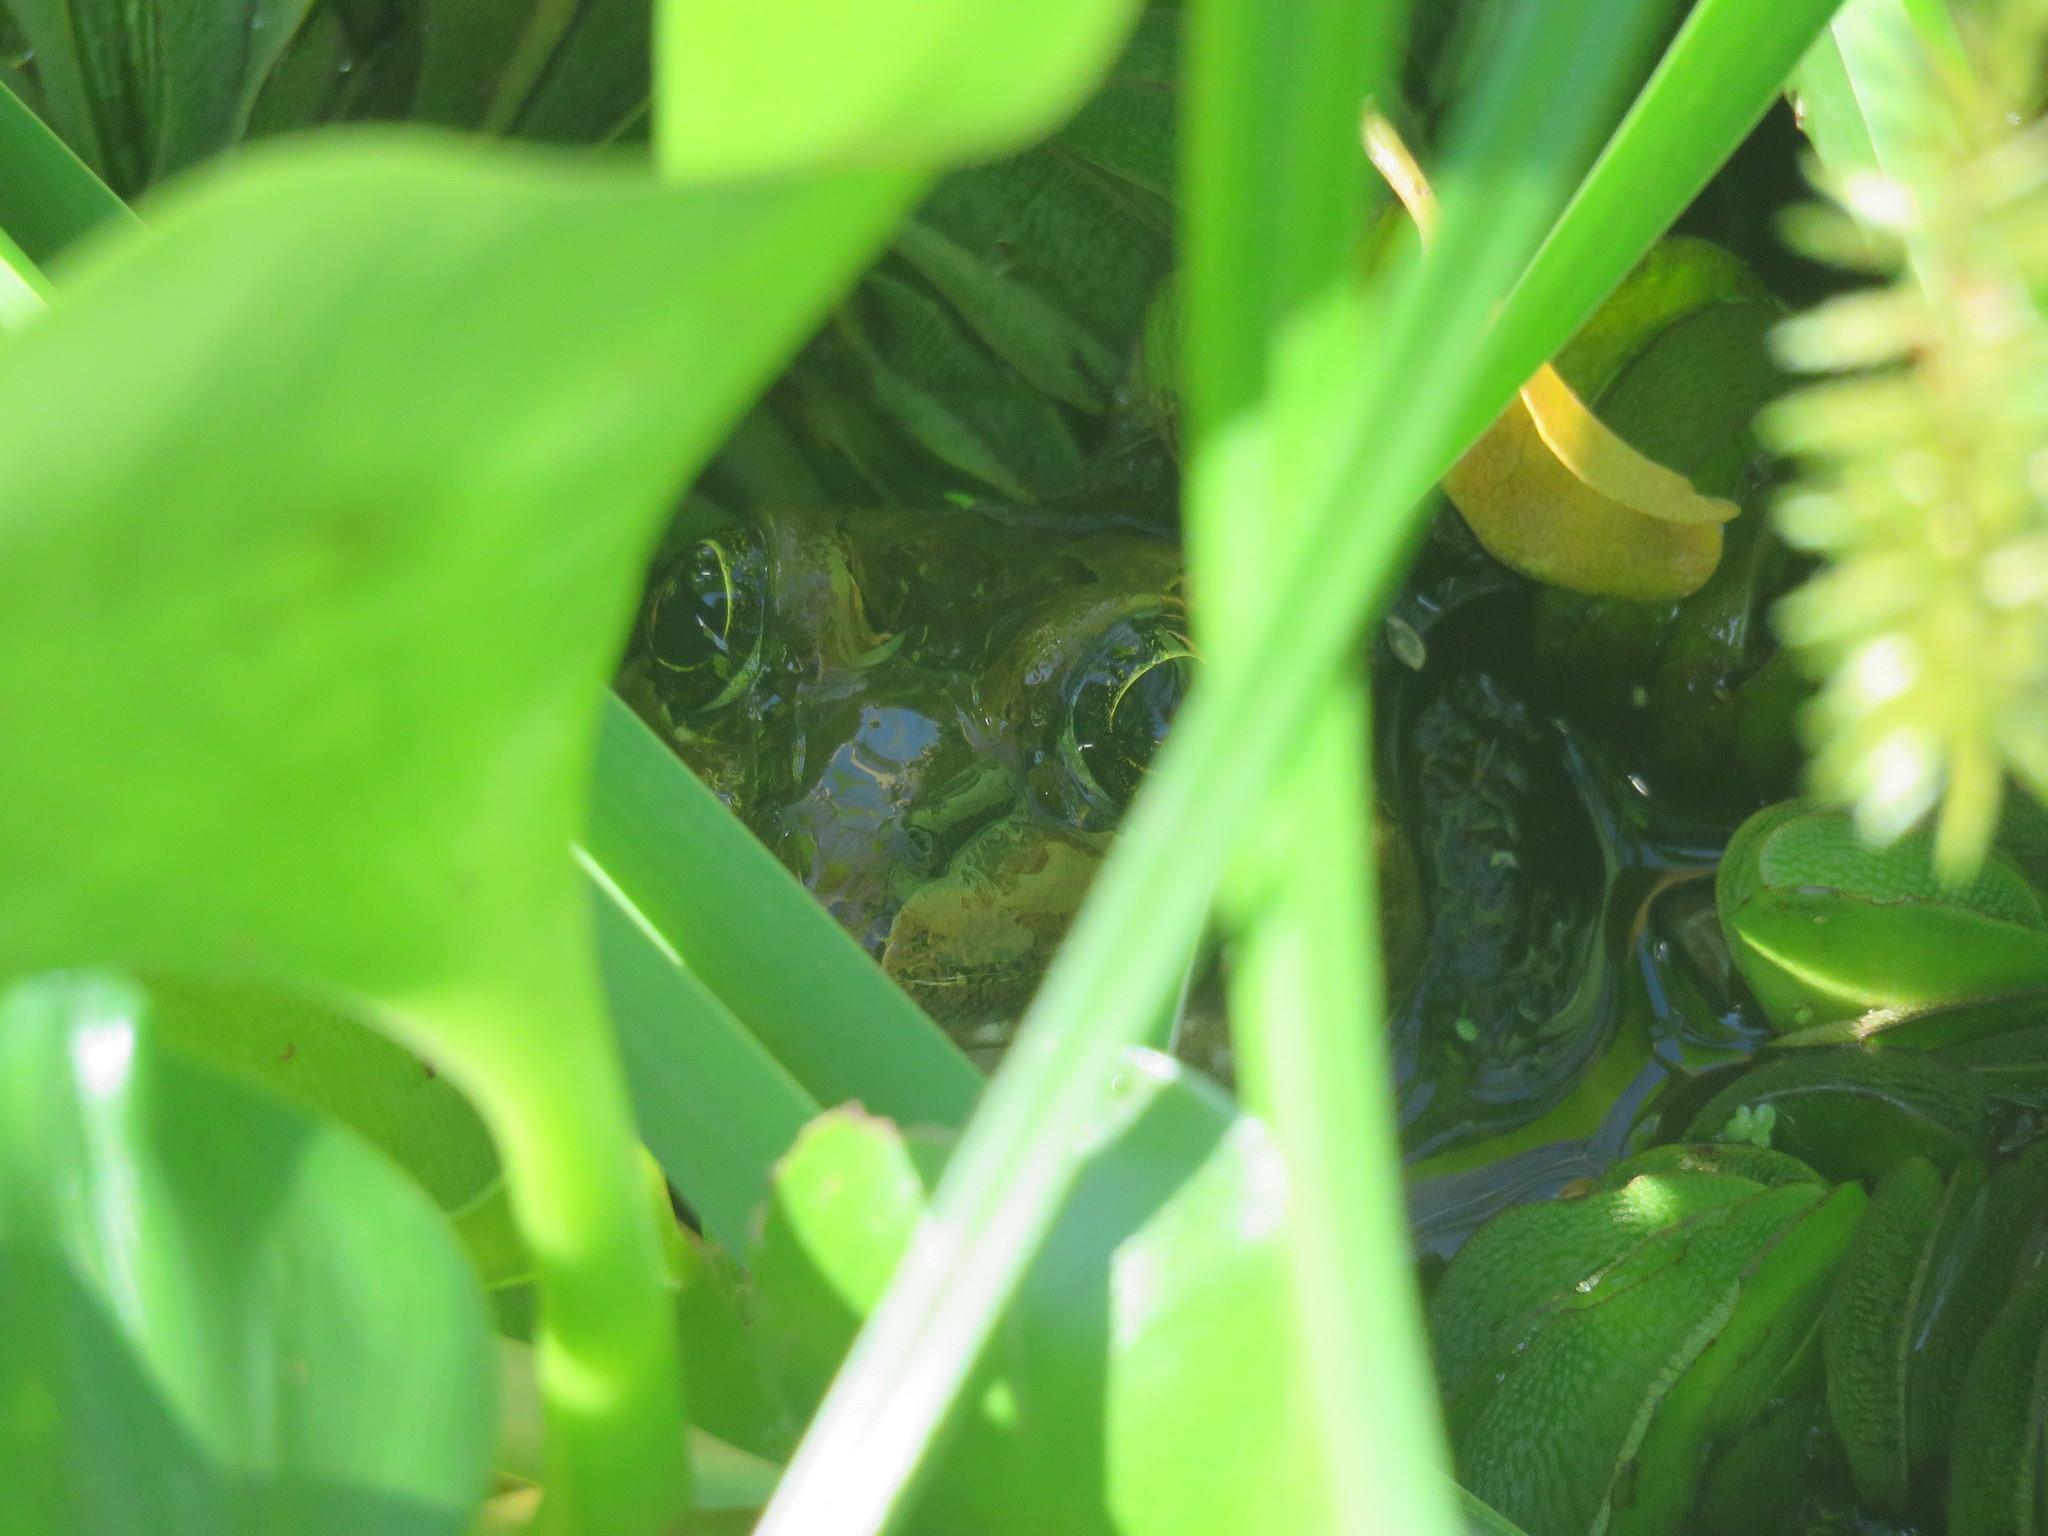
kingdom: Animalia
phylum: Chordata
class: Amphibia
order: Anura
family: Leptodactylidae
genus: Leptodactylus
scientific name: Leptodactylus luctator
